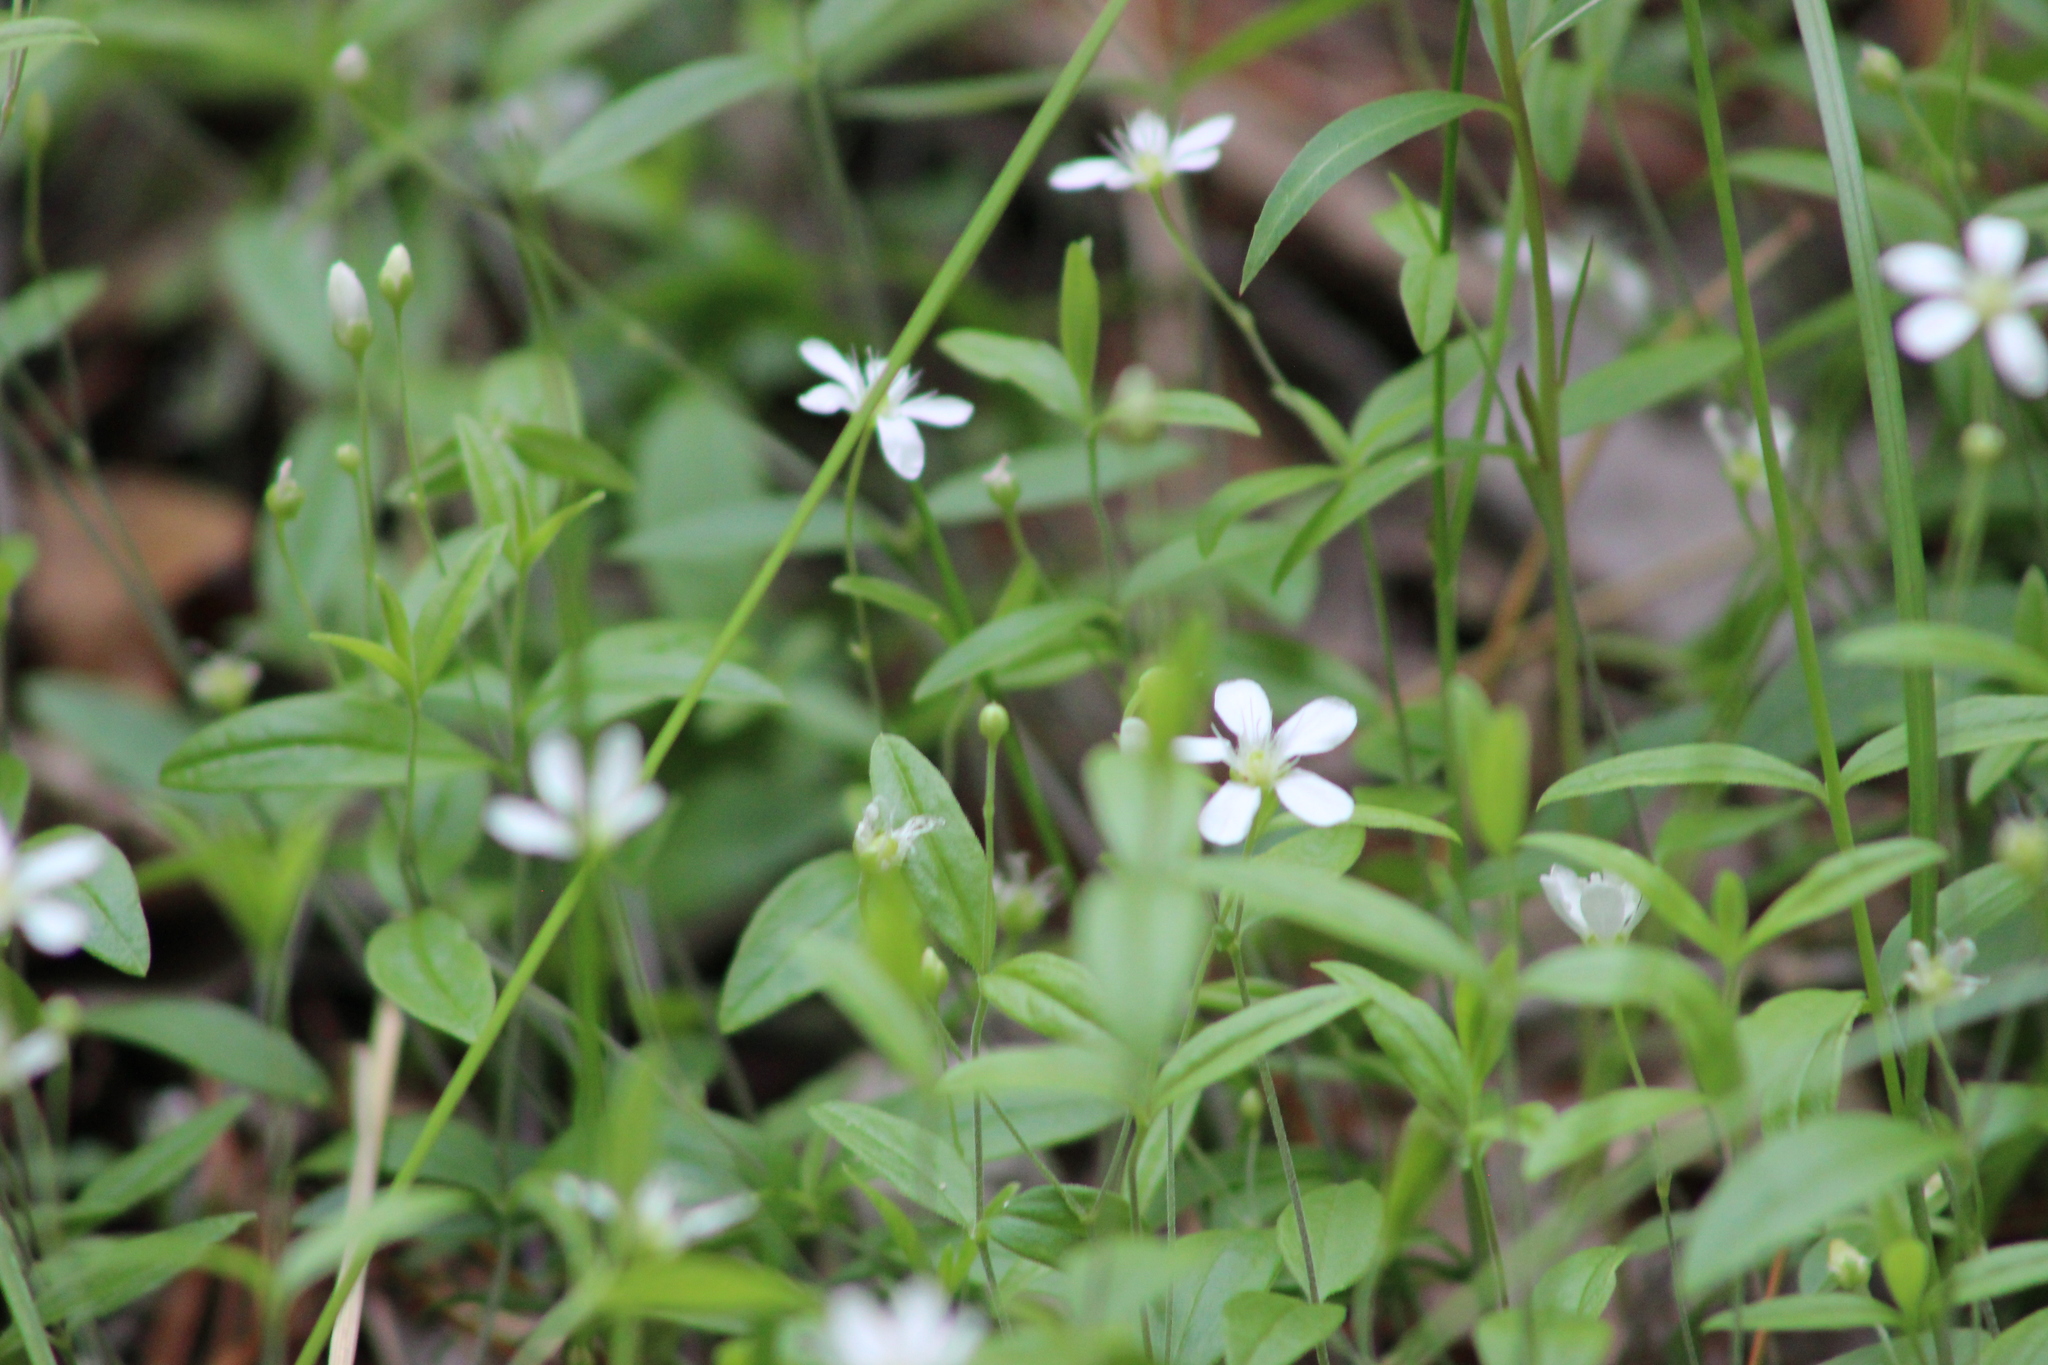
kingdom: Plantae
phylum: Tracheophyta
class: Magnoliopsida
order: Caryophyllales
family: Caryophyllaceae
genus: Moehringia
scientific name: Moehringia lateriflora
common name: Blunt-leaved sandwort
